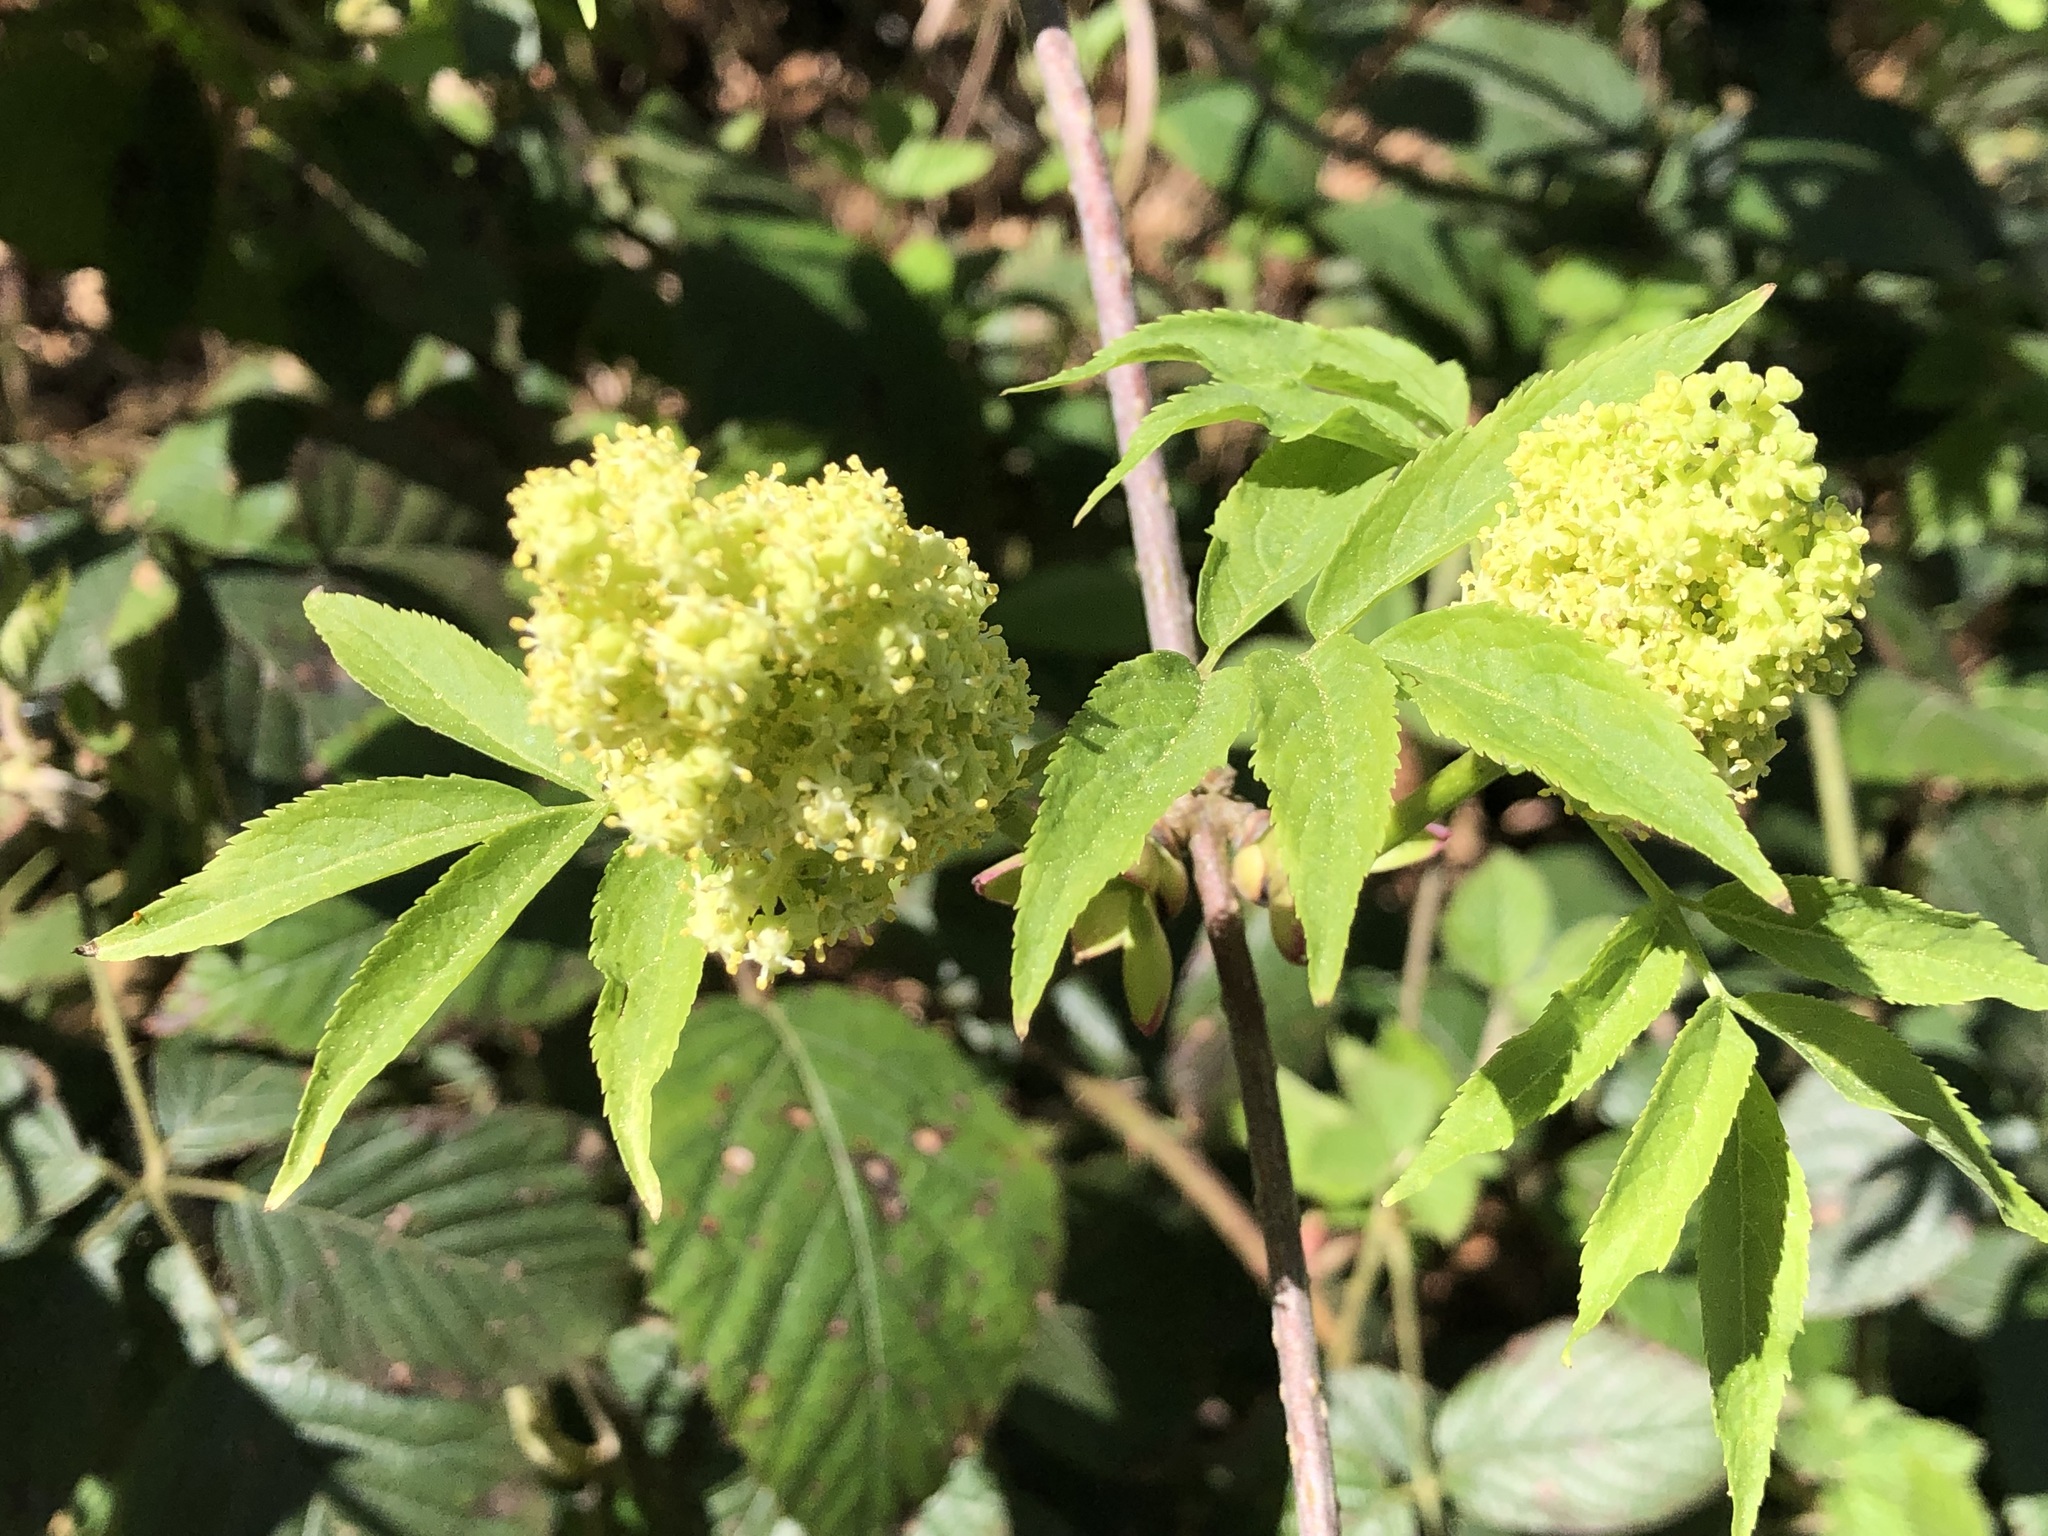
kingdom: Plantae
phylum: Tracheophyta
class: Magnoliopsida
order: Dipsacales
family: Viburnaceae
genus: Sambucus
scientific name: Sambucus racemosa
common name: Red-berried elder
